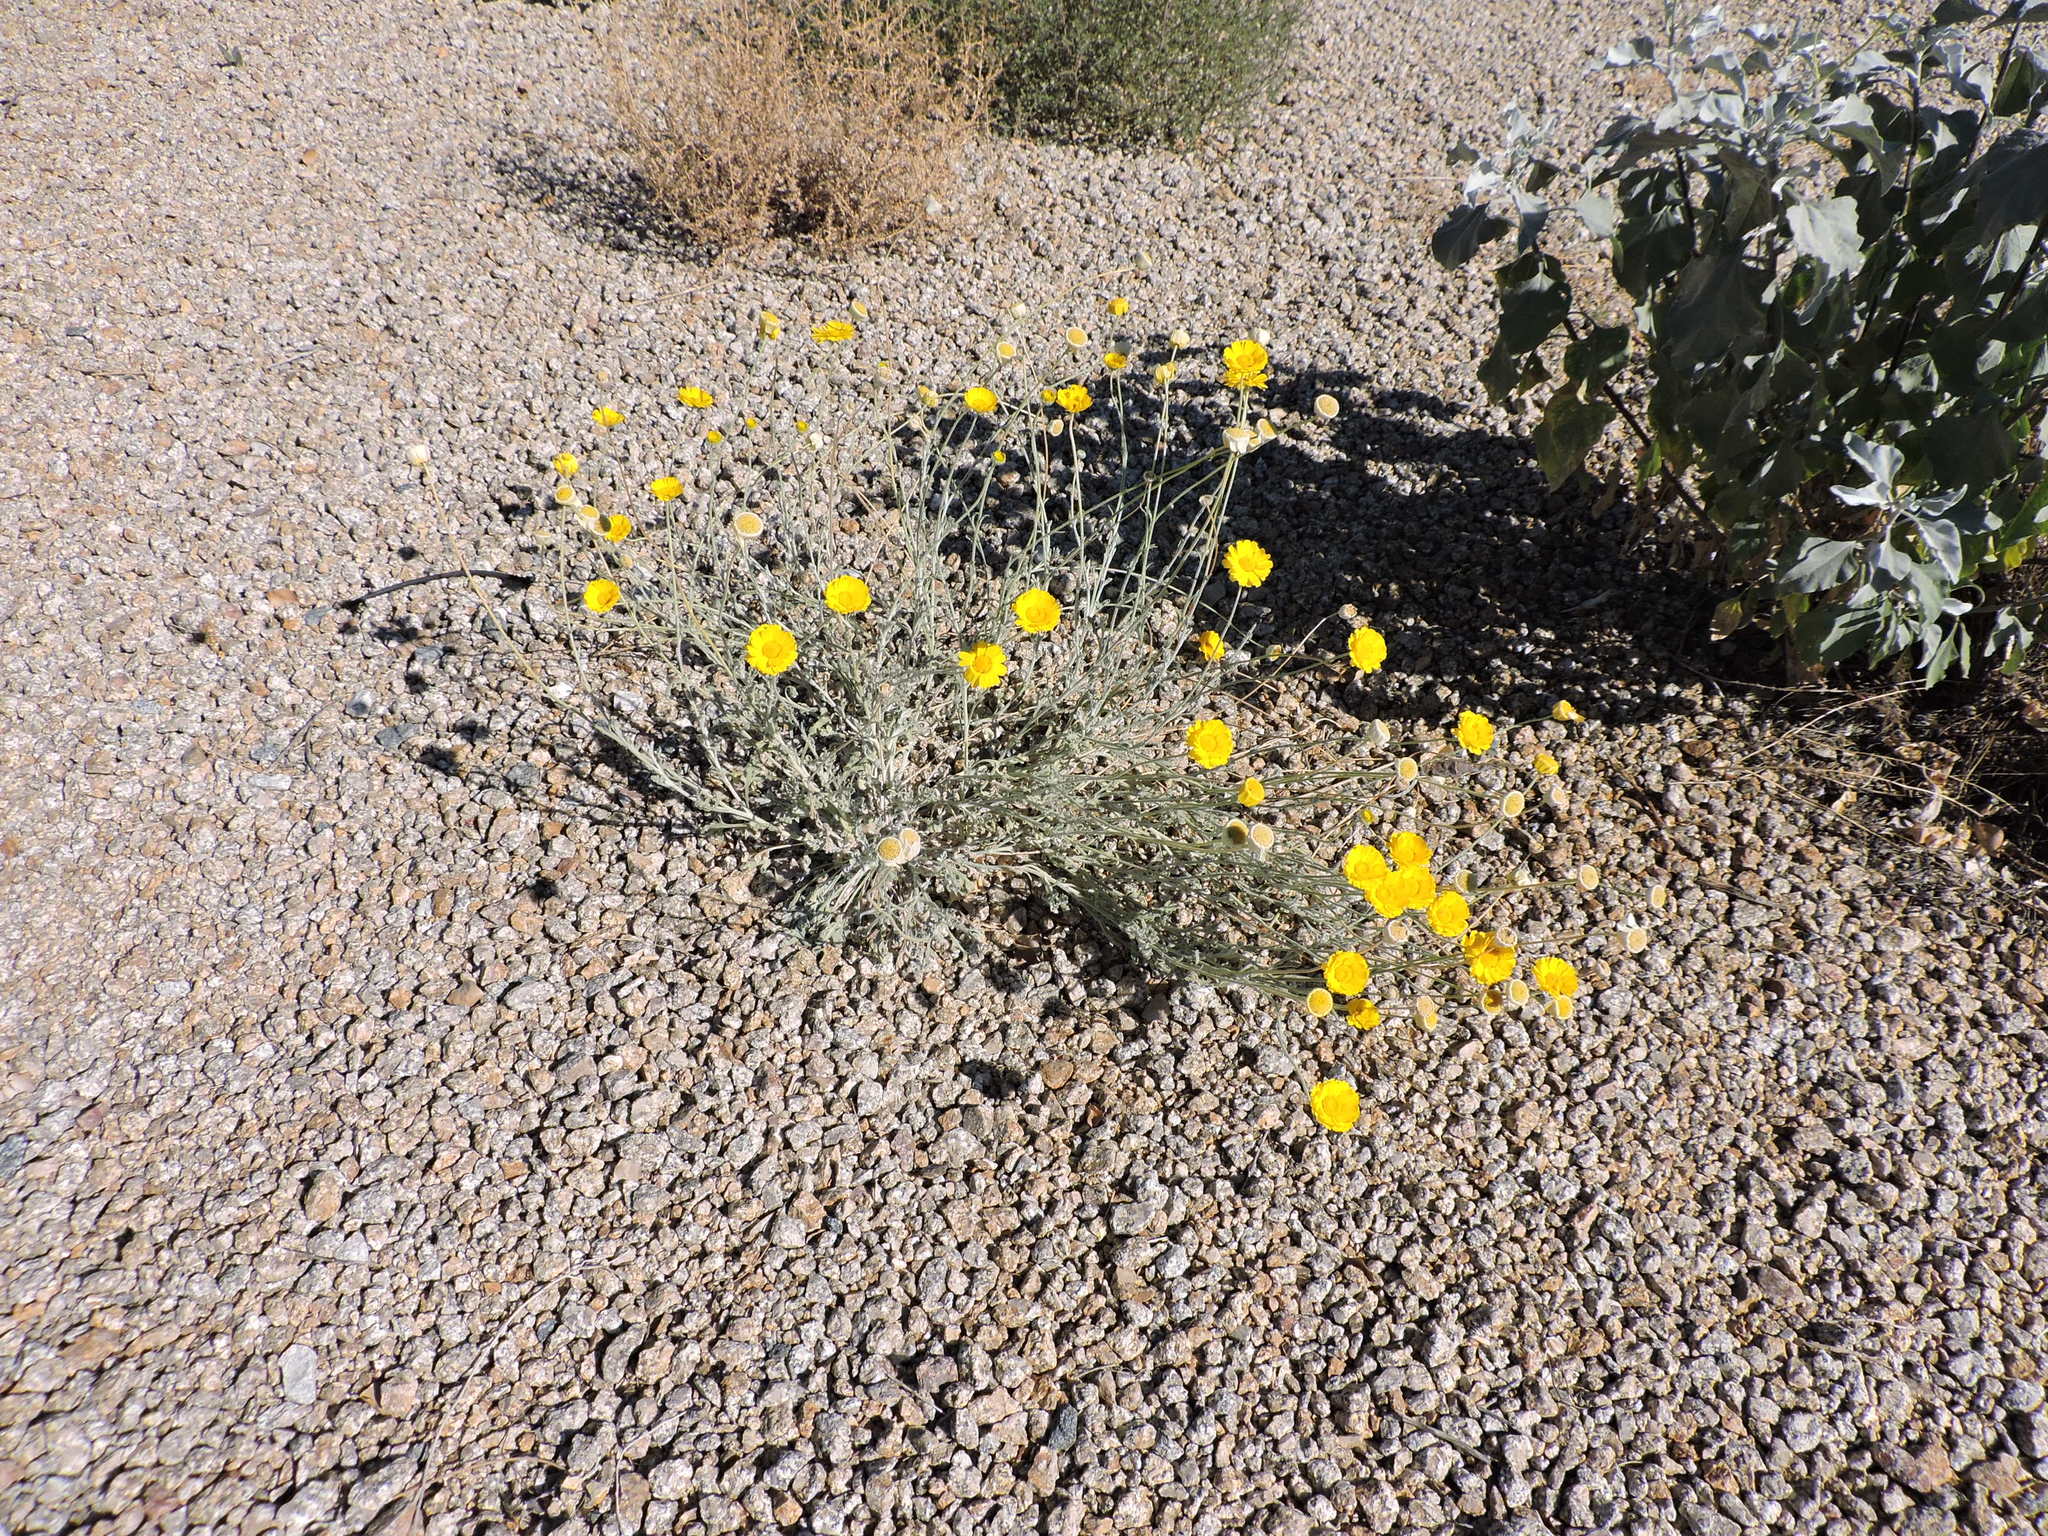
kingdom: Plantae
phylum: Tracheophyta
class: Magnoliopsida
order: Asterales
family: Asteraceae
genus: Baileya
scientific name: Baileya multiradiata
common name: Desert-marigold
